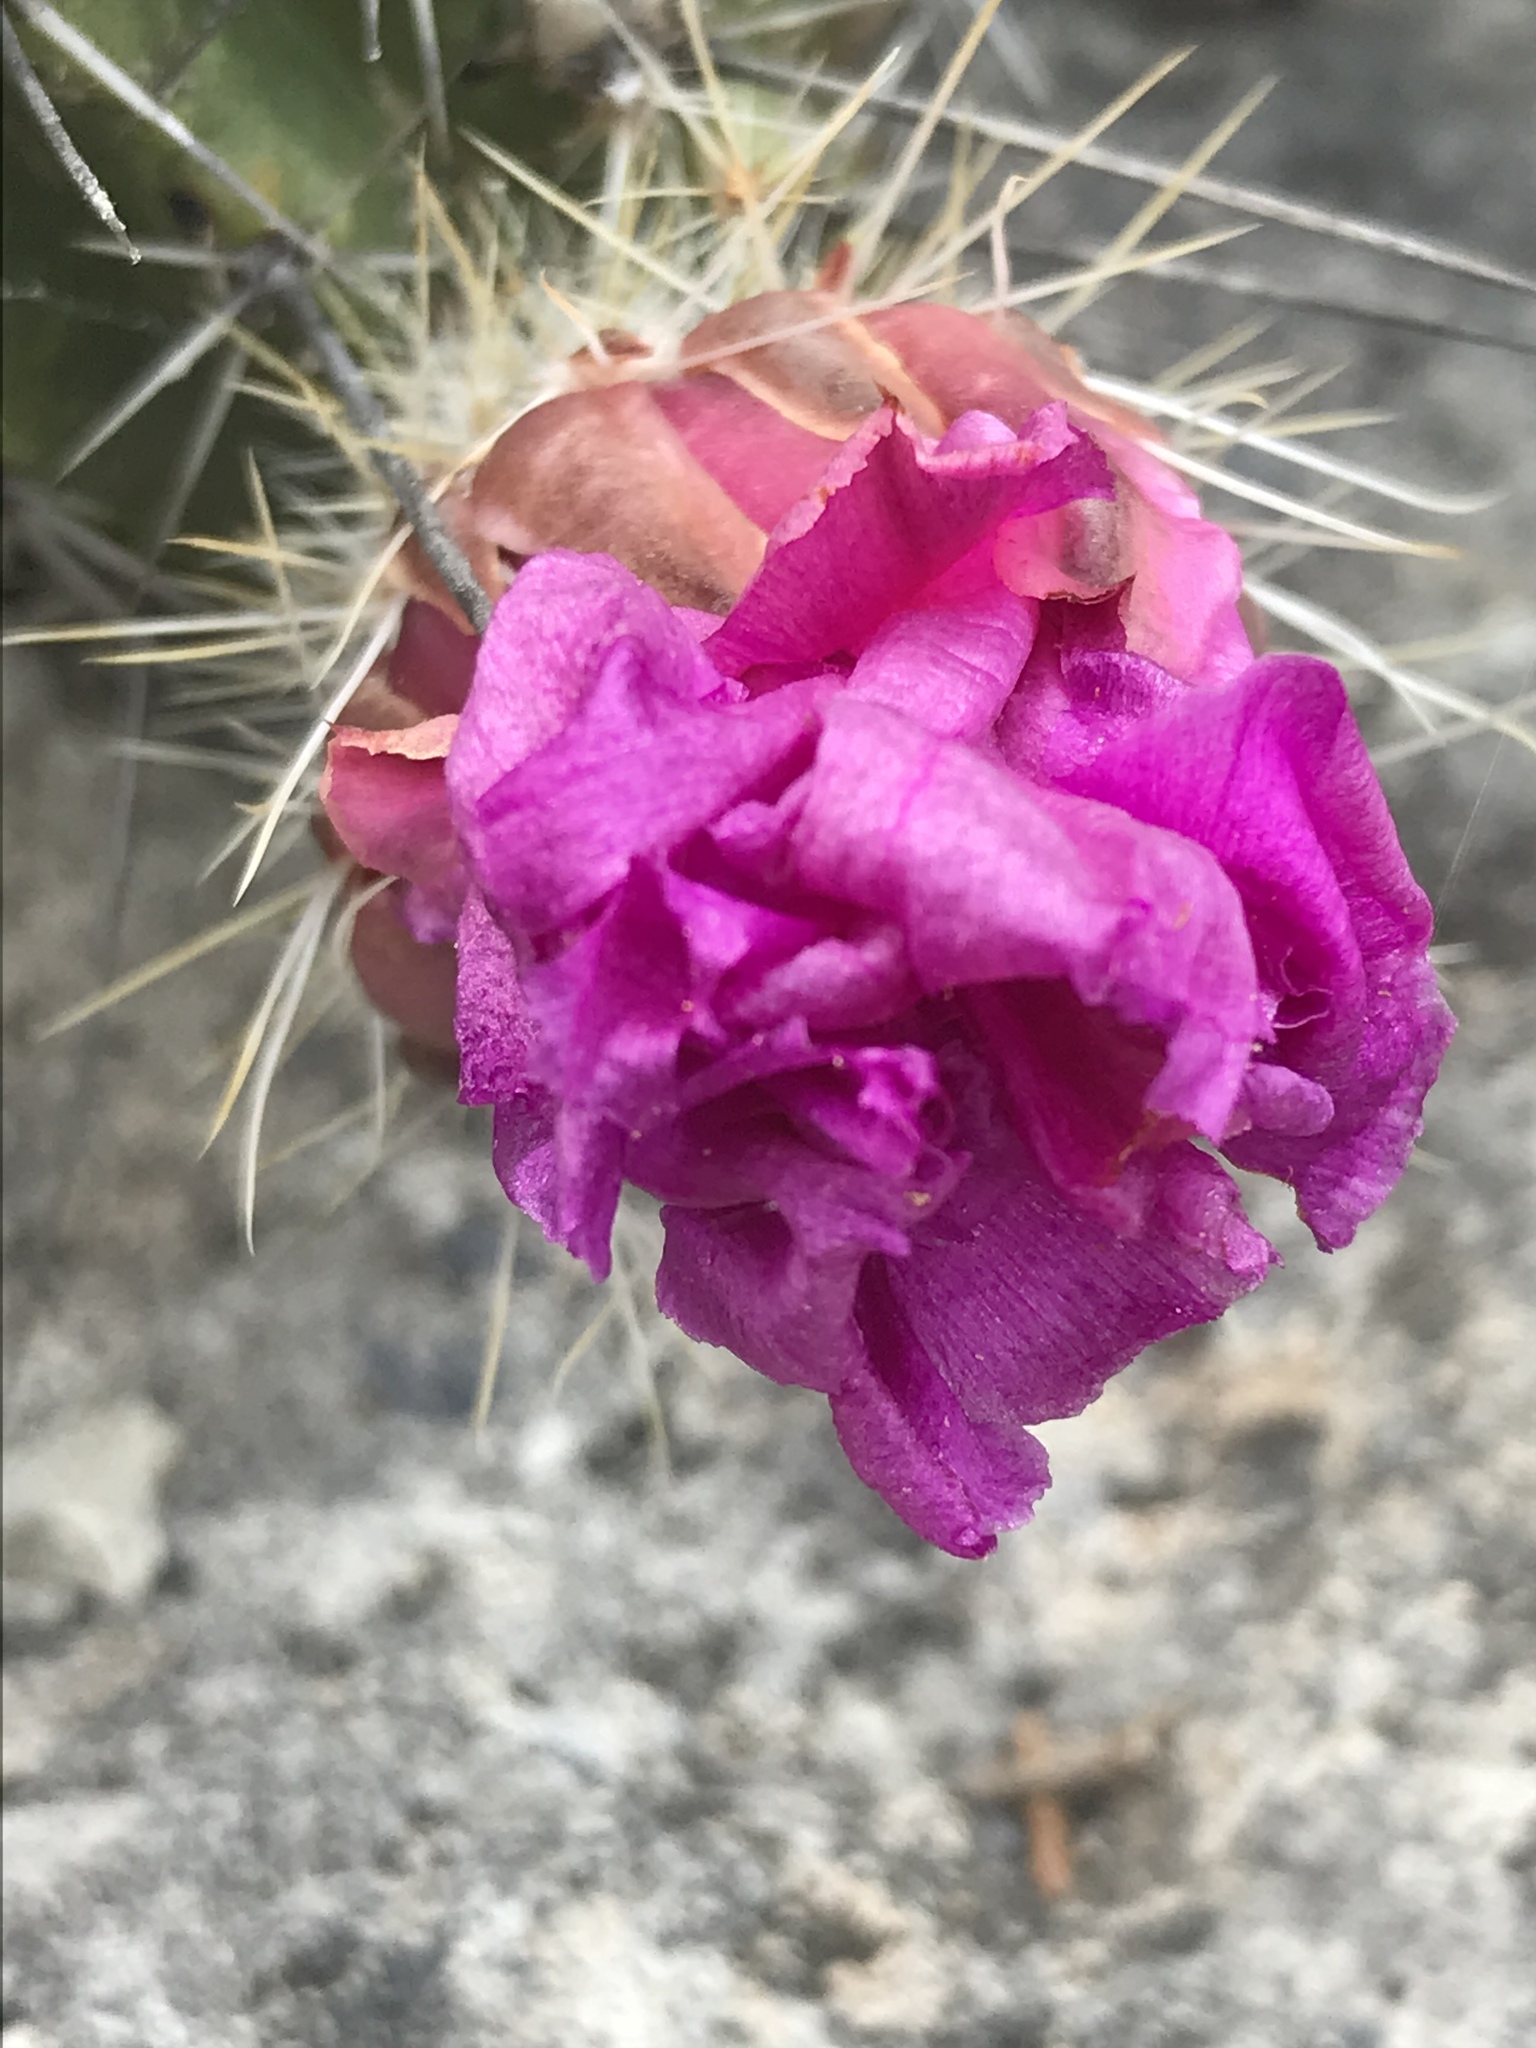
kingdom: Plantae
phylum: Tracheophyta
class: Magnoliopsida
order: Caryophyllales
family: Cactaceae
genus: Echinocereus
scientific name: Echinocereus enneacanthus
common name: Pitaya
